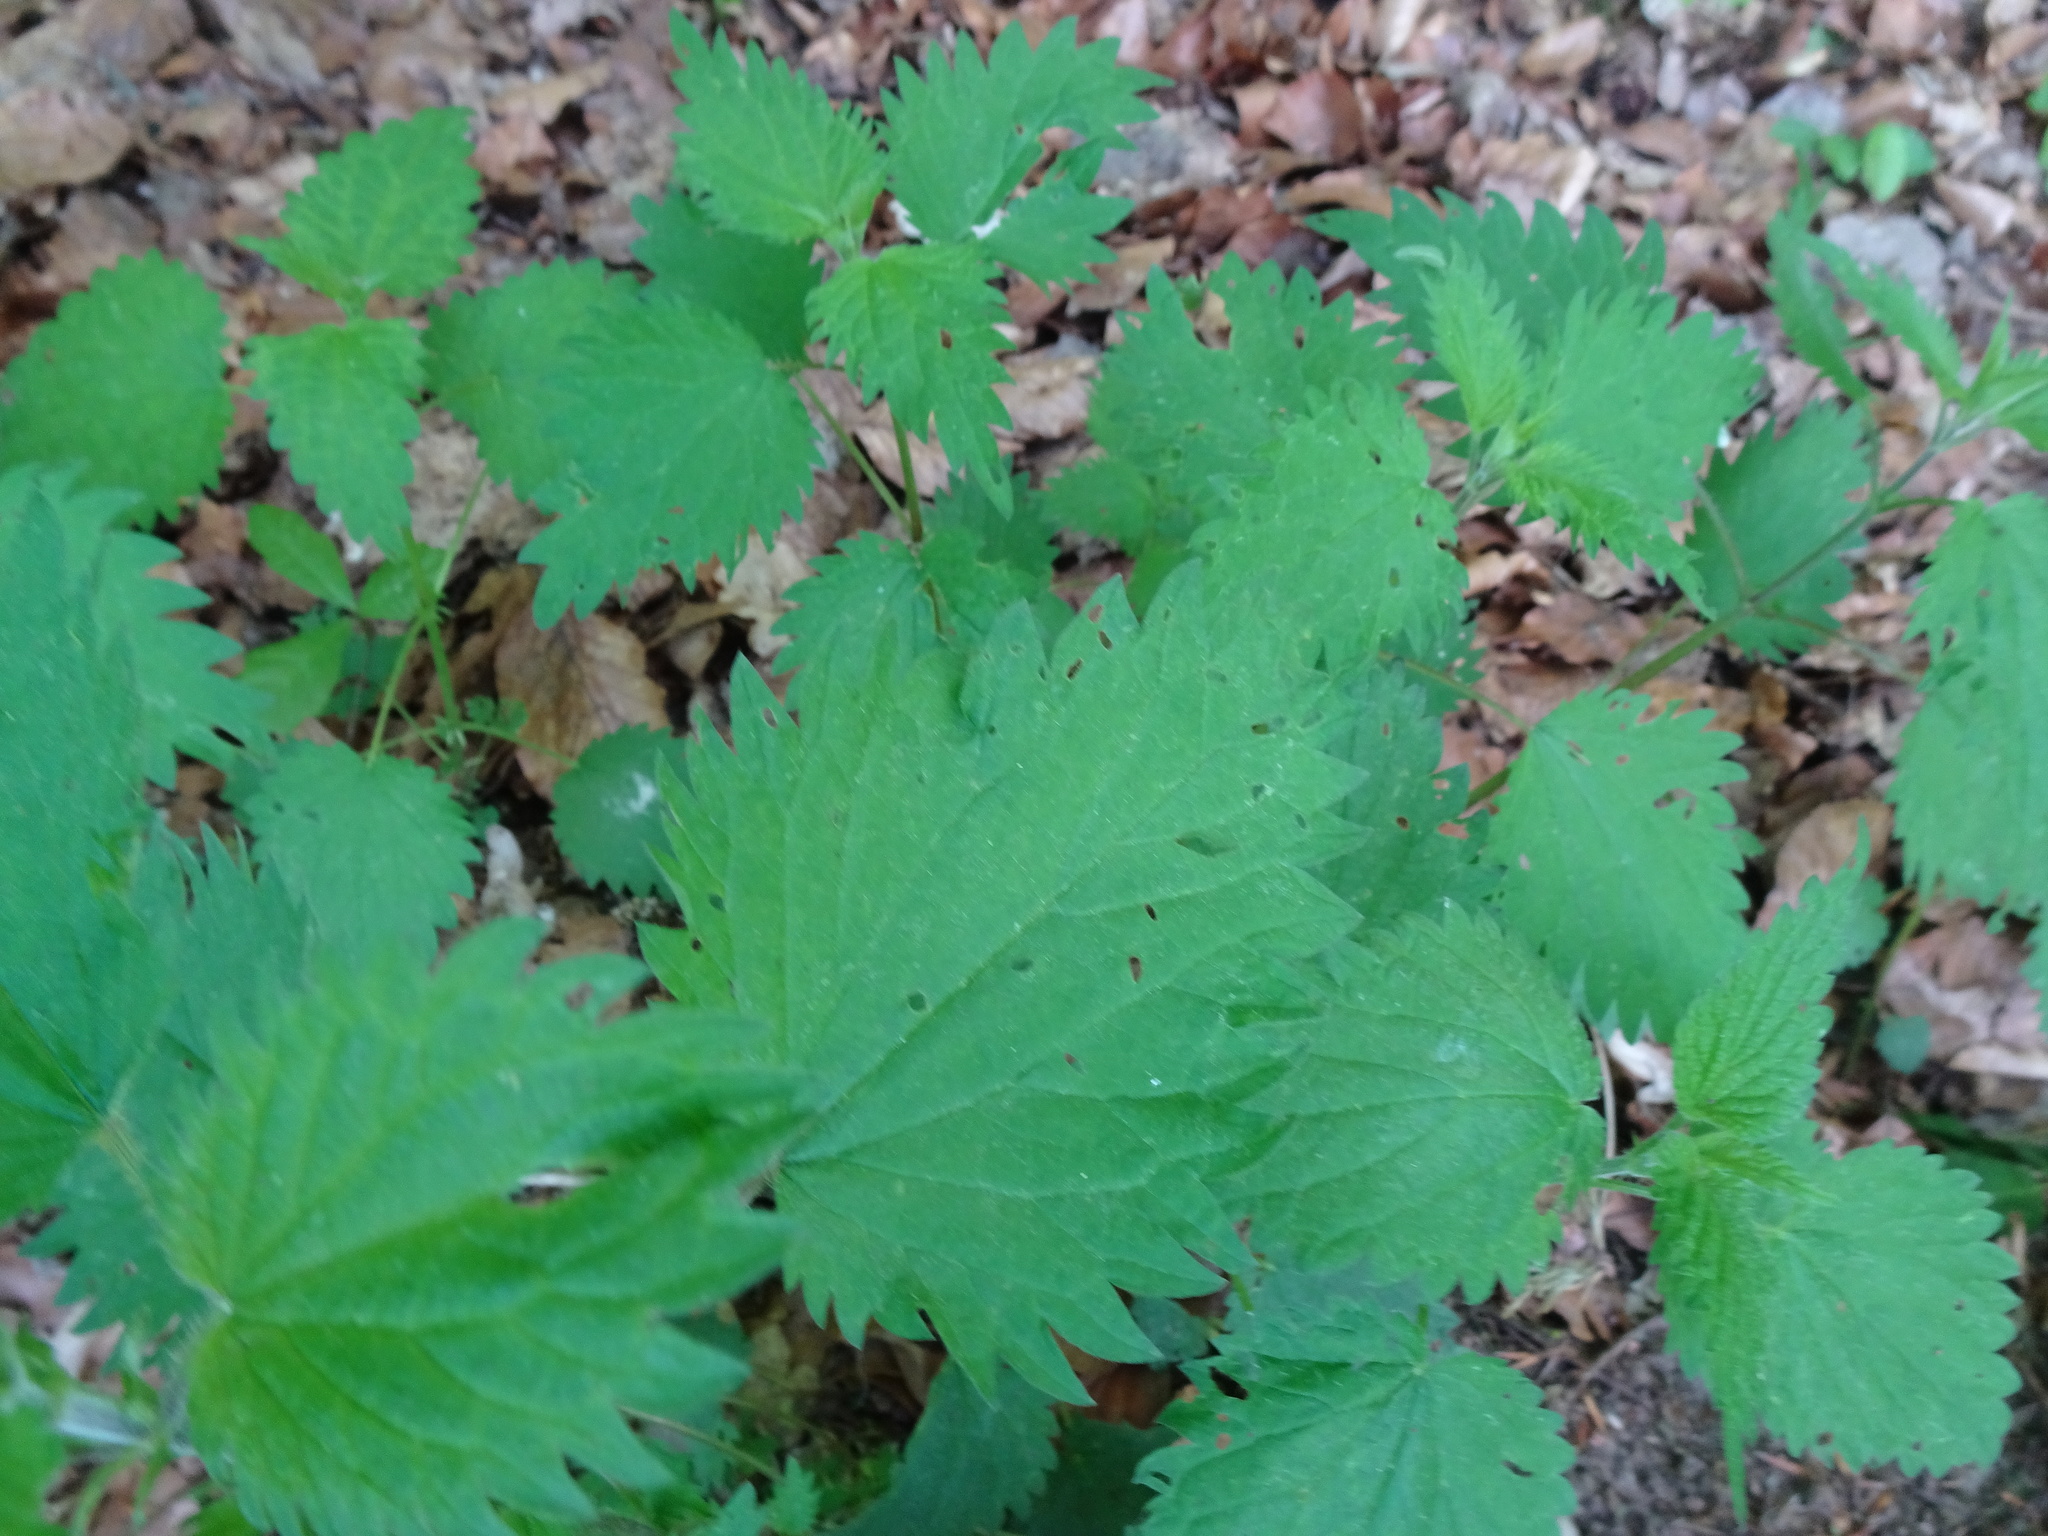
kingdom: Plantae
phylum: Tracheophyta
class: Magnoliopsida
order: Rosales
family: Urticaceae
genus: Urtica
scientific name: Urtica dioica
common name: Common nettle
